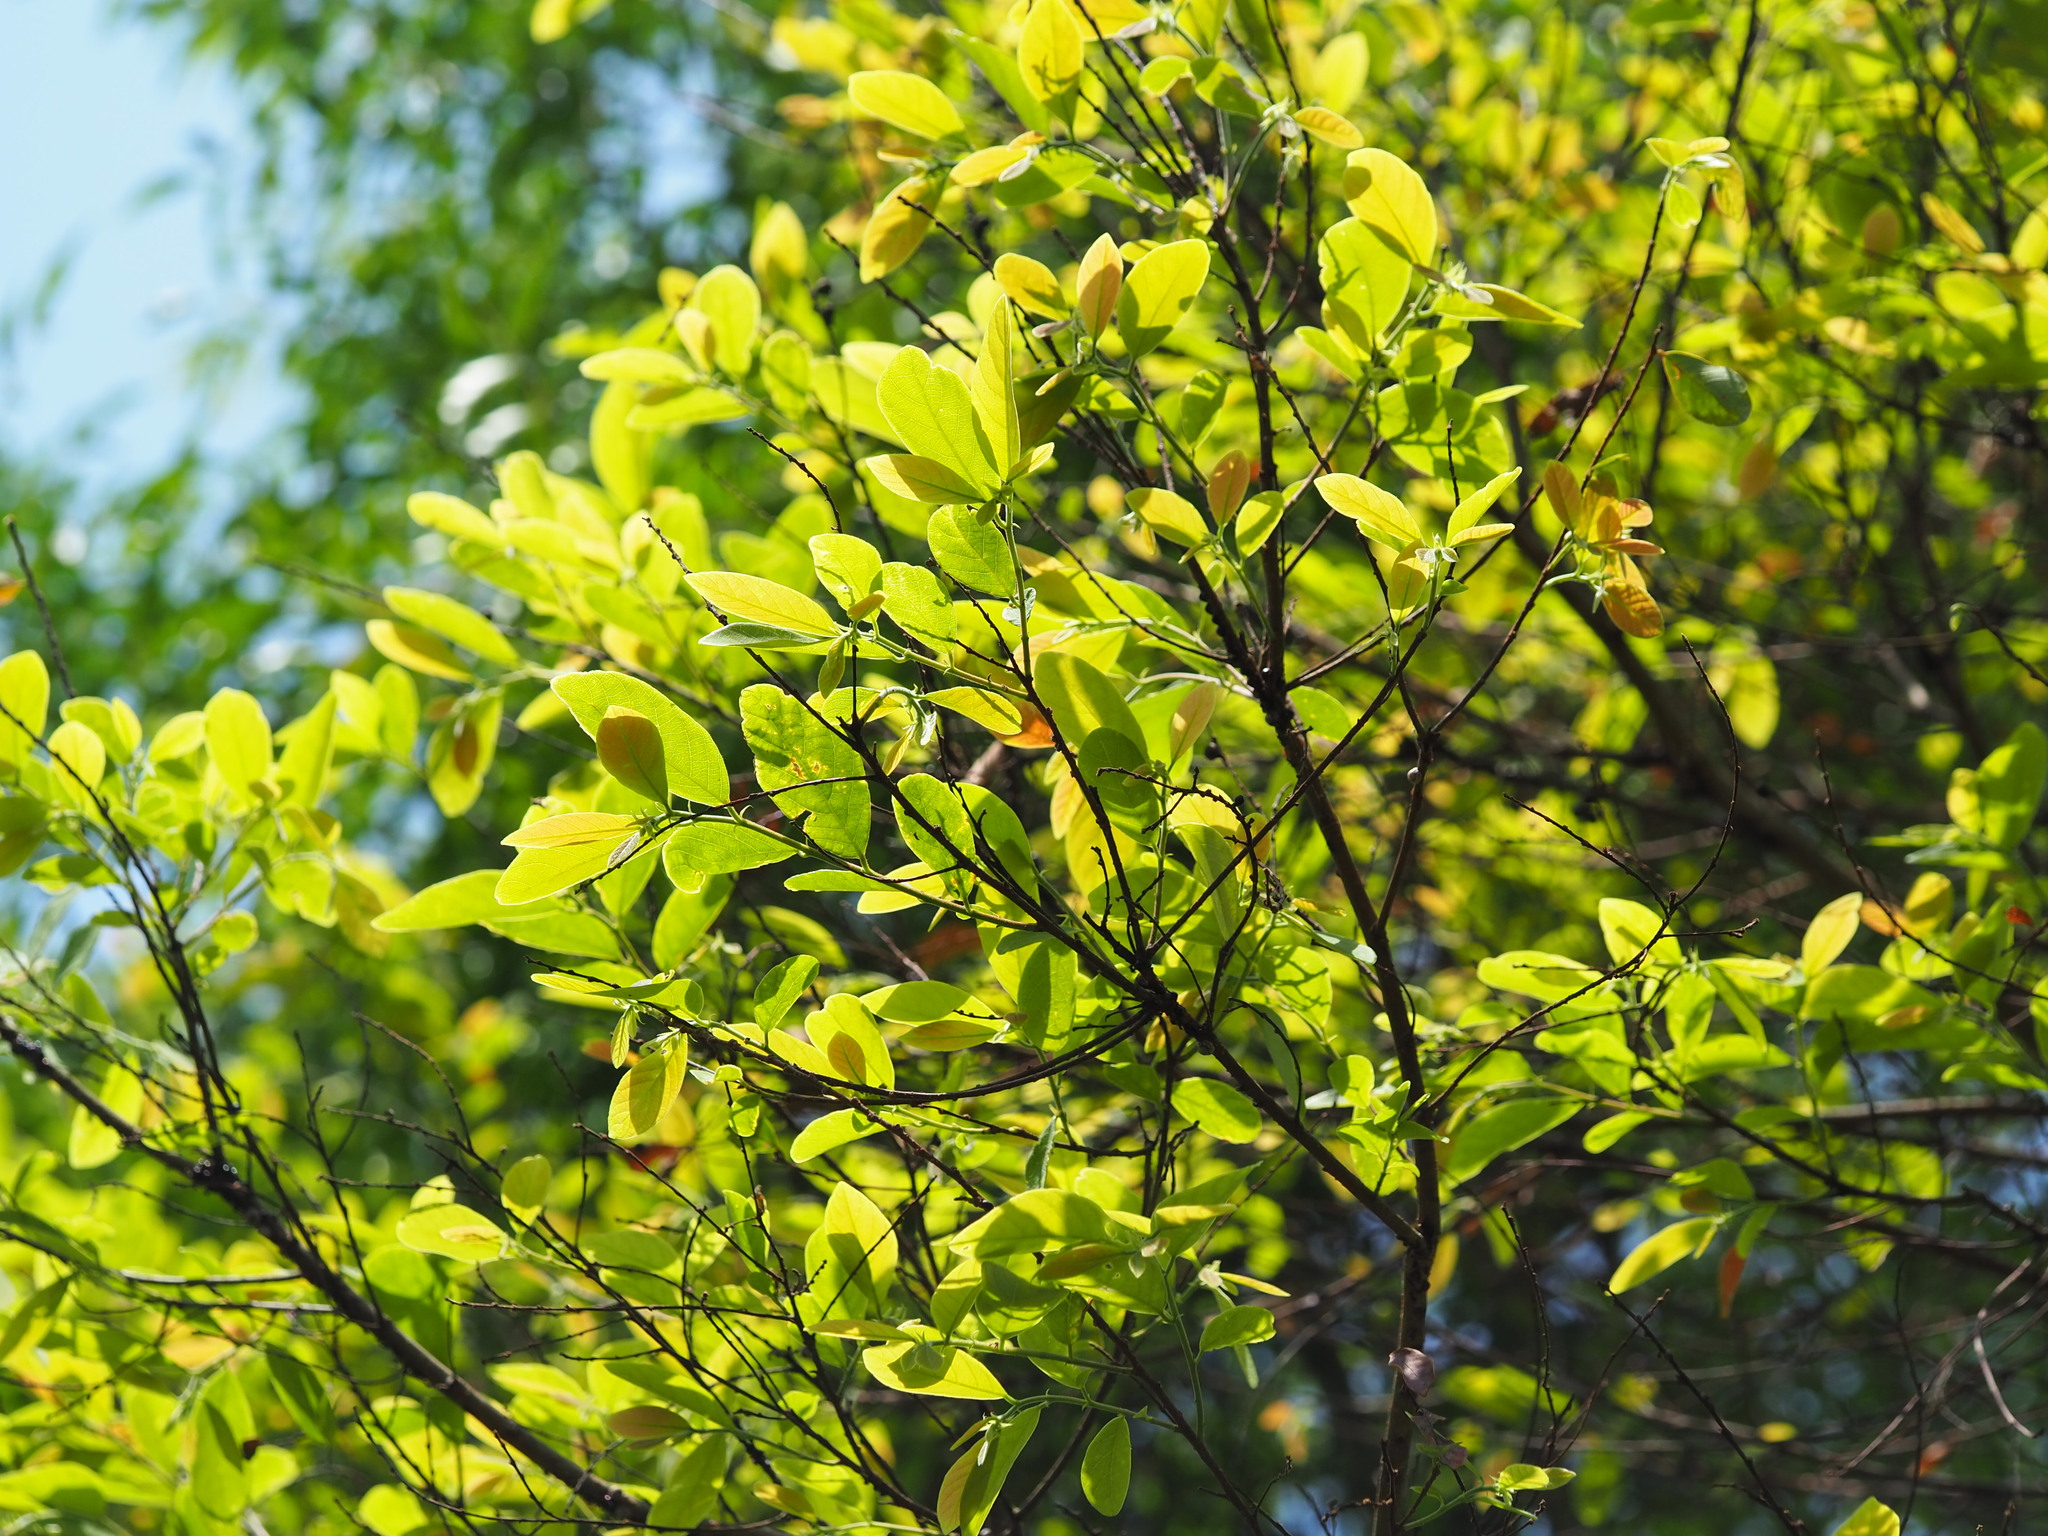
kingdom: Plantae
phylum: Tracheophyta
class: Magnoliopsida
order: Malpighiales
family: Phyllanthaceae
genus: Bridelia
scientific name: Bridelia tomentosa
